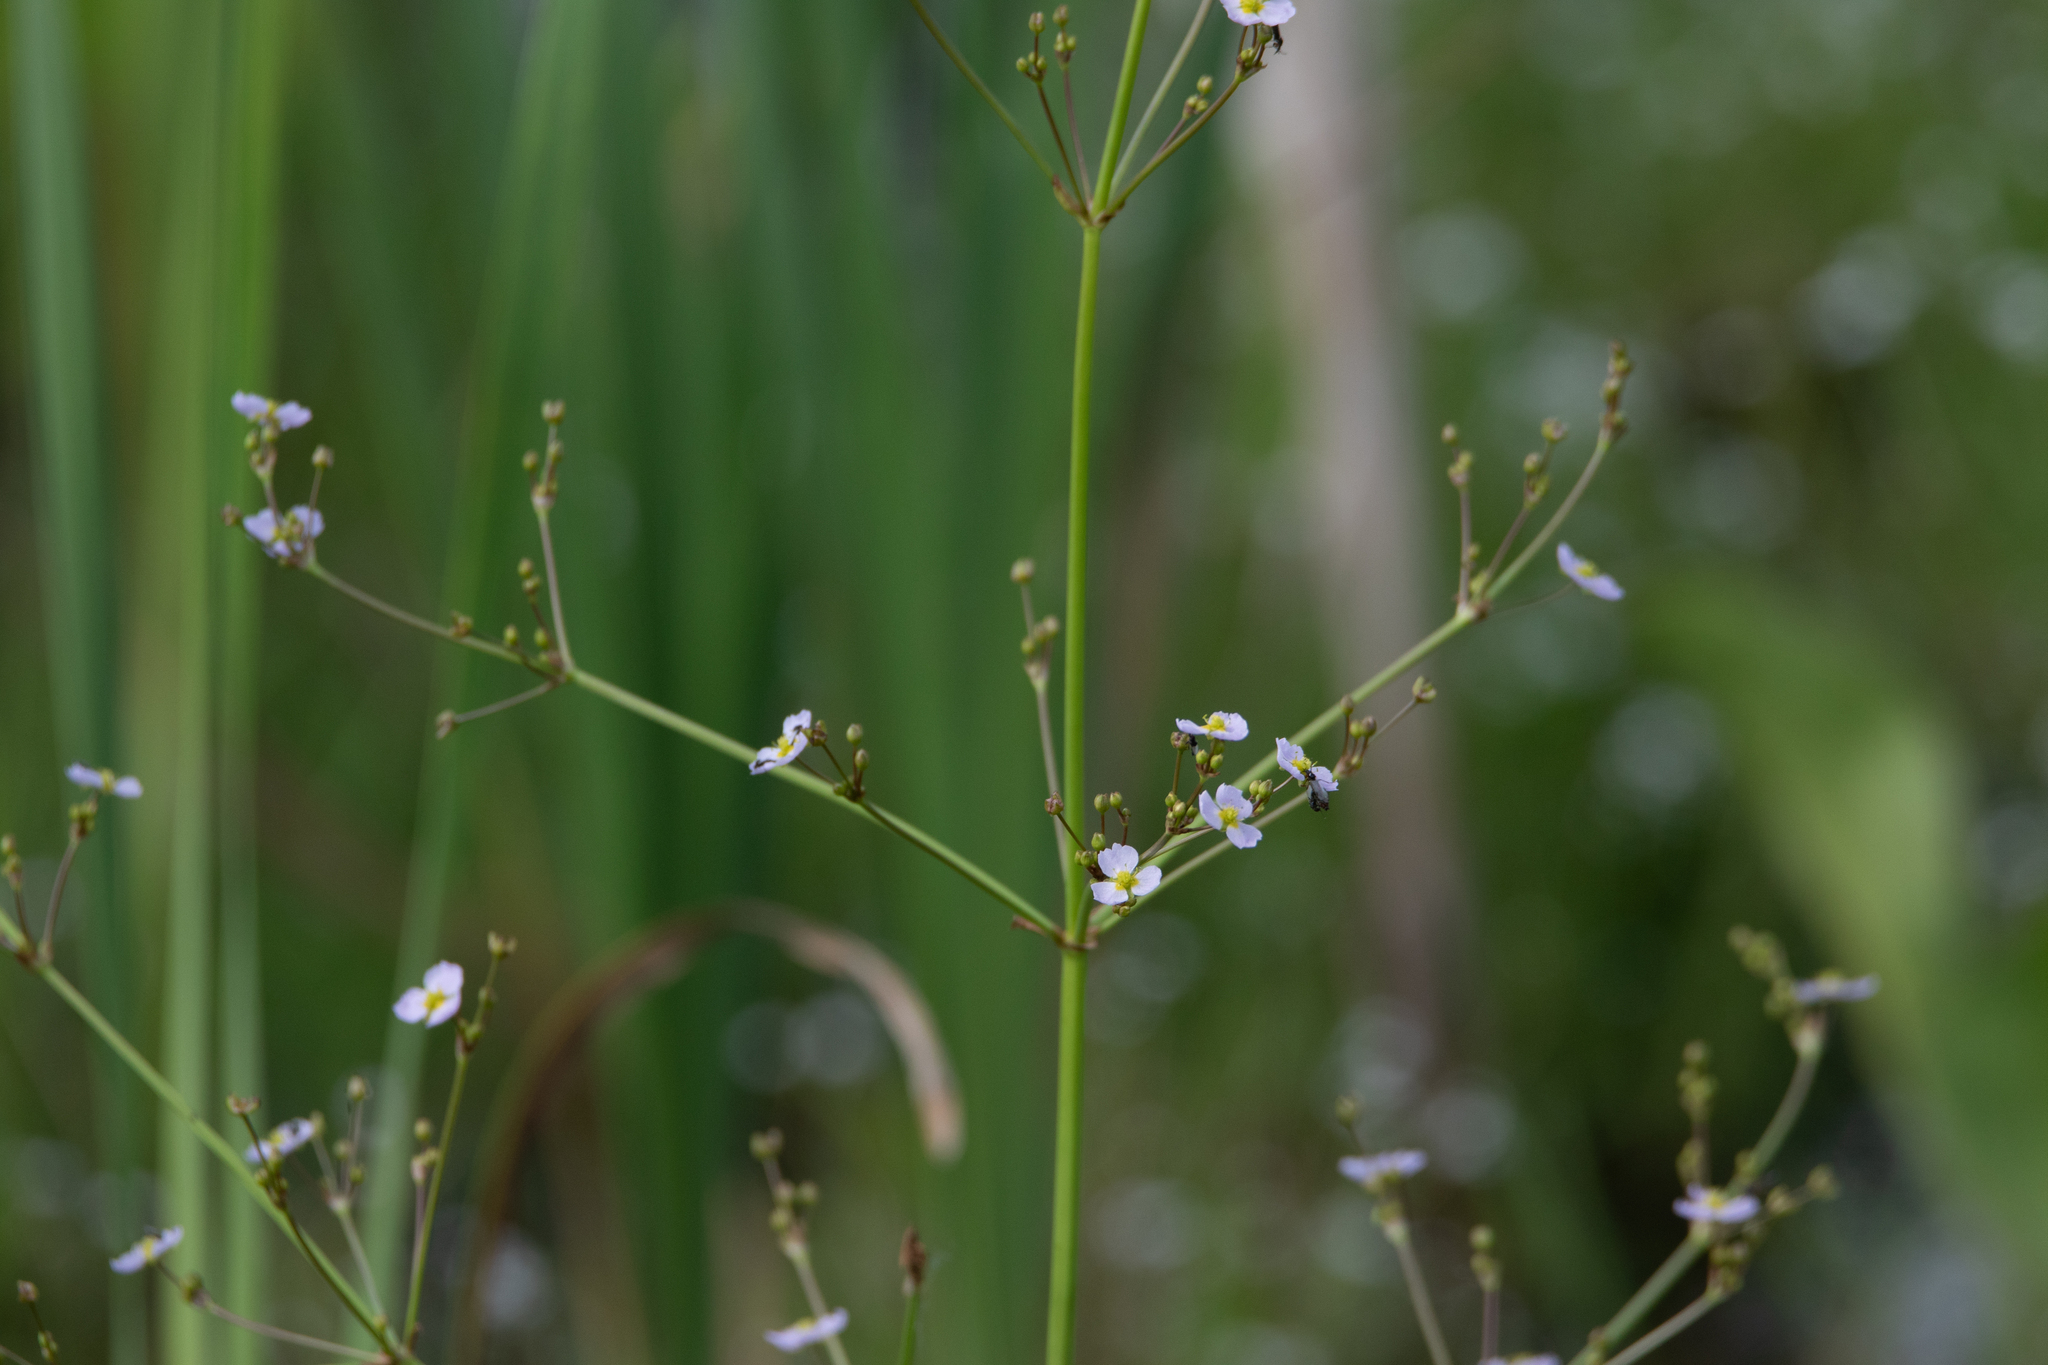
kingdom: Plantae
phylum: Tracheophyta
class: Liliopsida
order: Alismatales
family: Alismataceae
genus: Alisma
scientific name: Alisma plantago-aquatica
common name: Water-plantain
